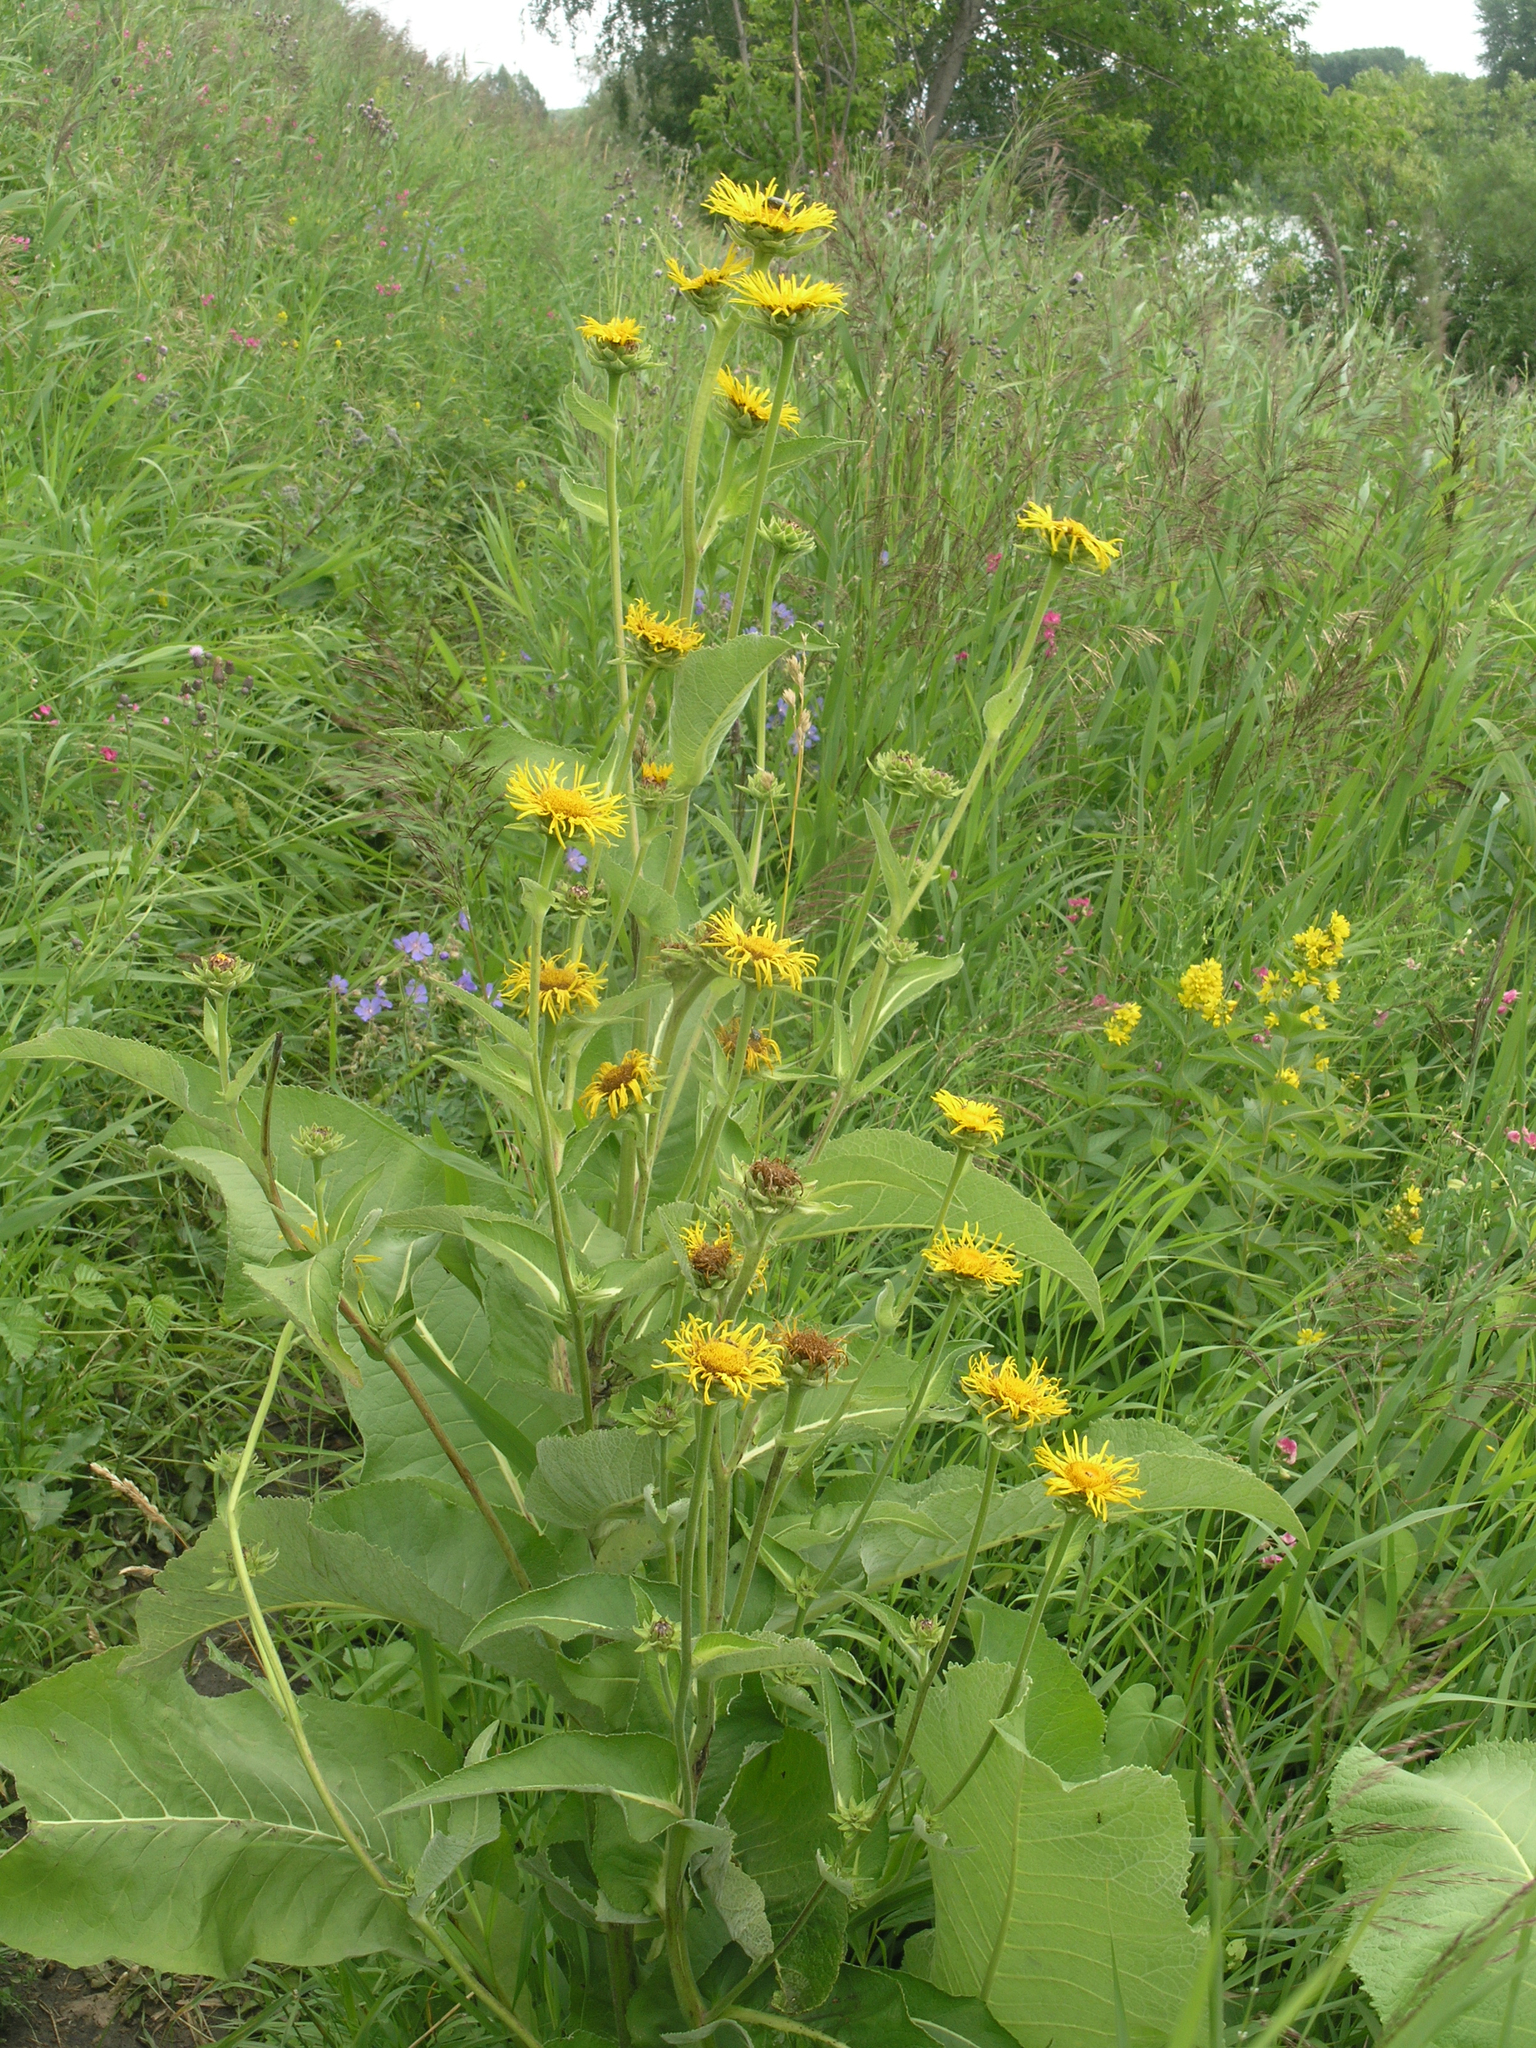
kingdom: Plantae
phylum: Tracheophyta
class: Magnoliopsida
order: Asterales
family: Asteraceae
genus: Inula
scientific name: Inula helenium
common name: Elecampane
